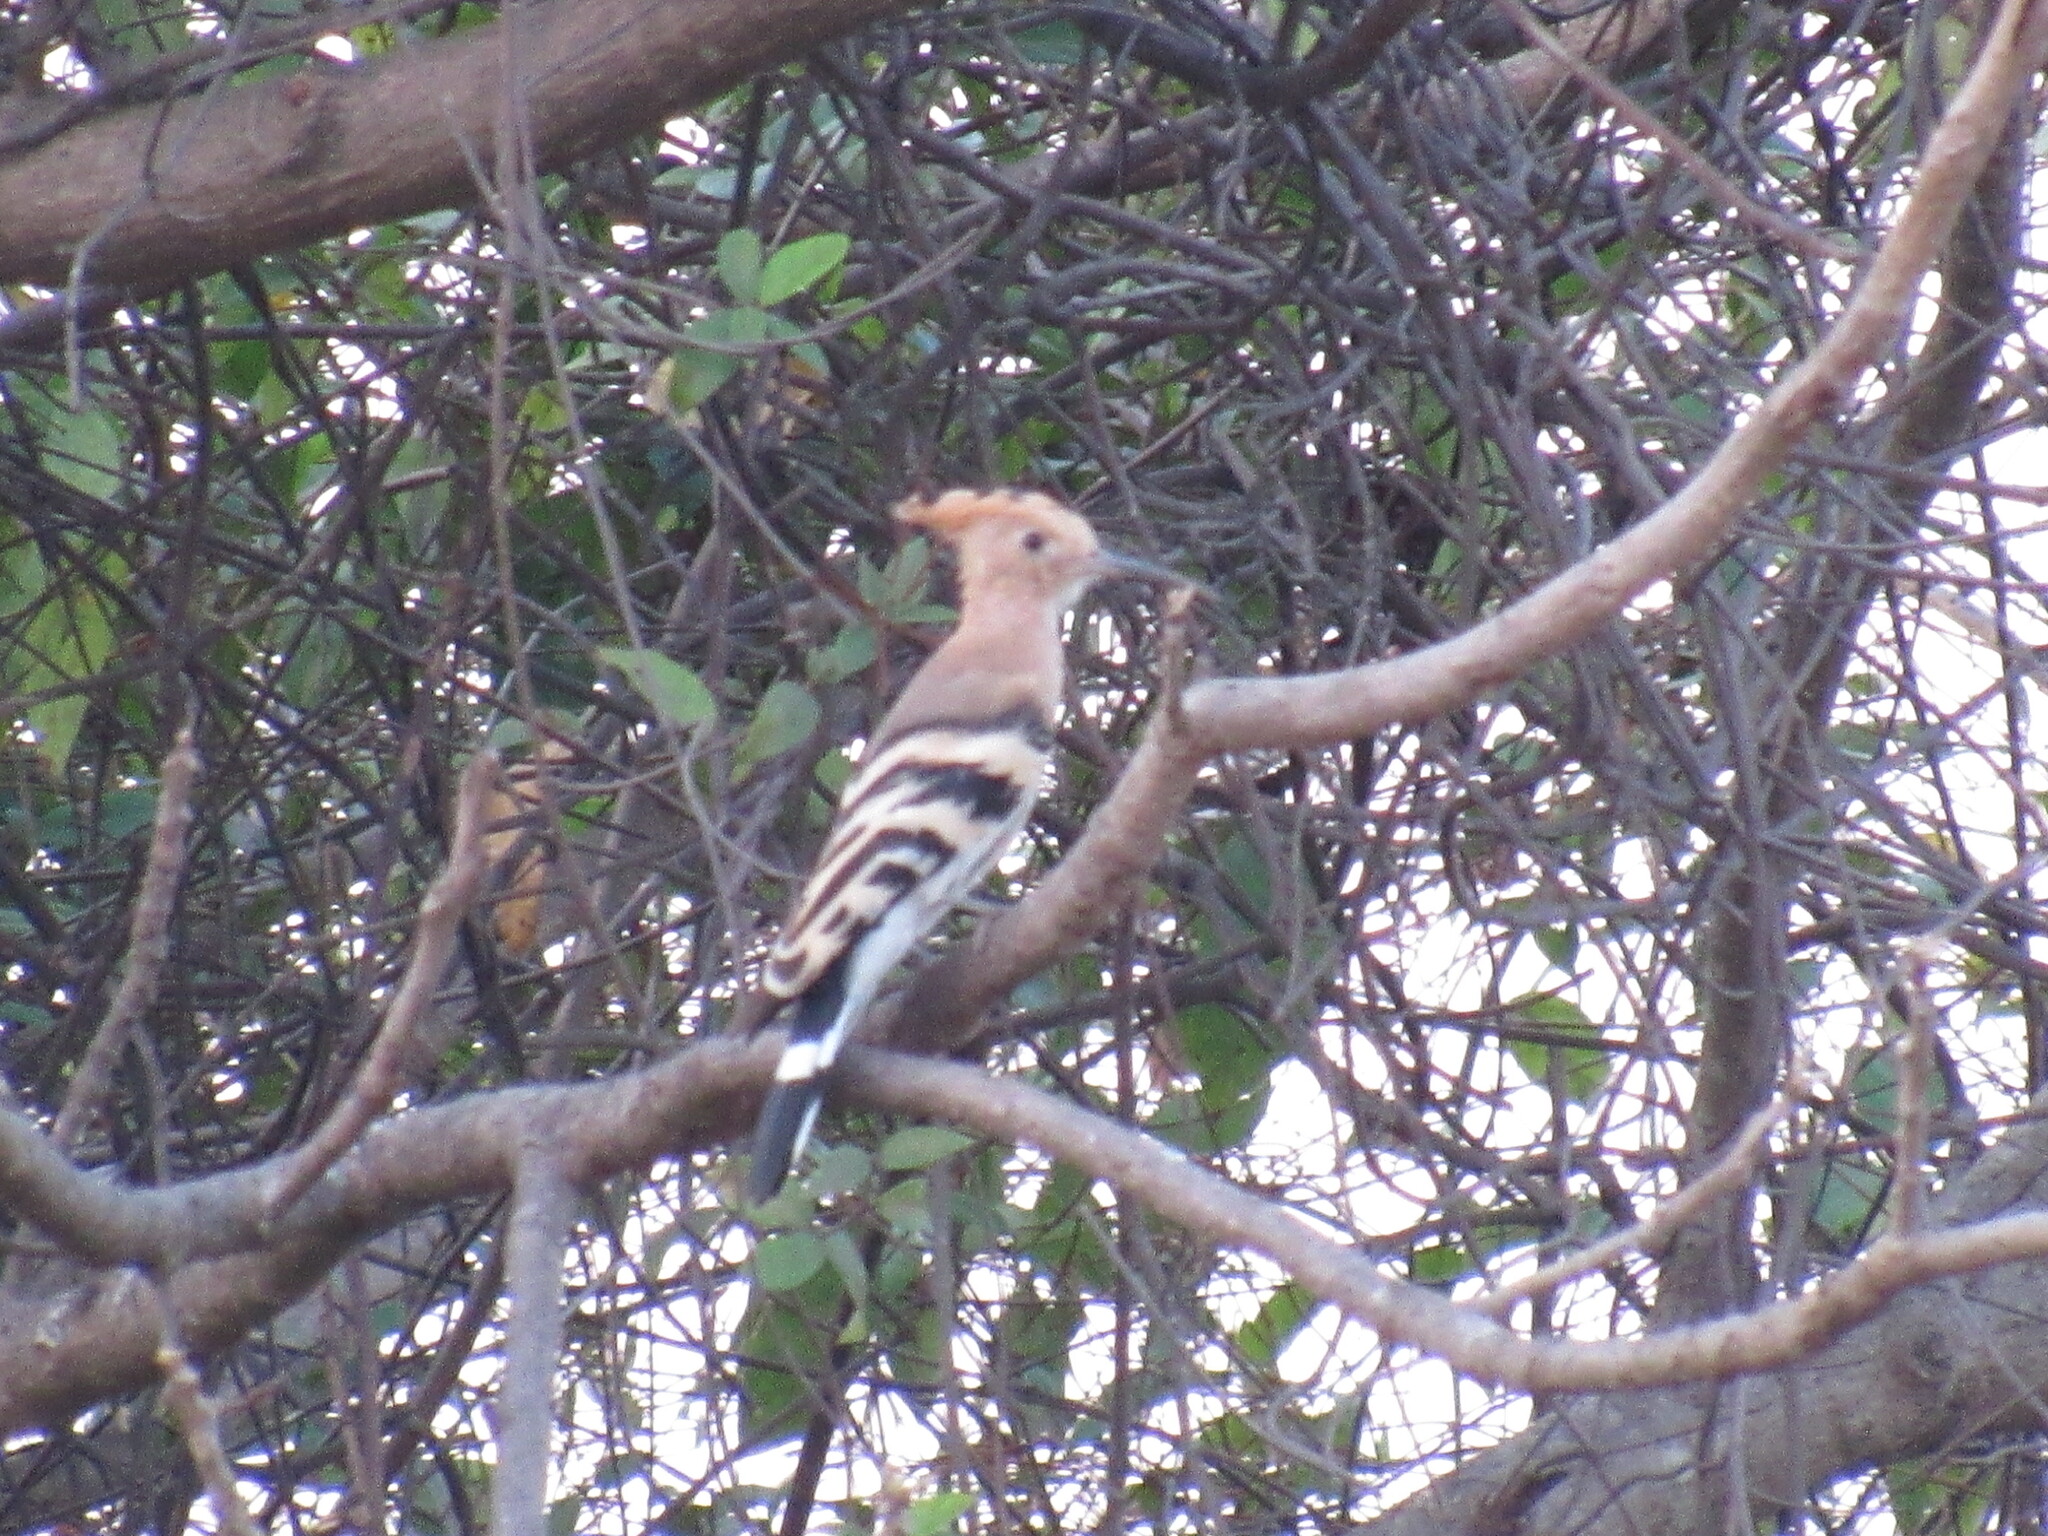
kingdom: Animalia
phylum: Chordata
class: Aves
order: Bucerotiformes
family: Upupidae
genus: Upupa
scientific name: Upupa epops
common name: Eurasian hoopoe
